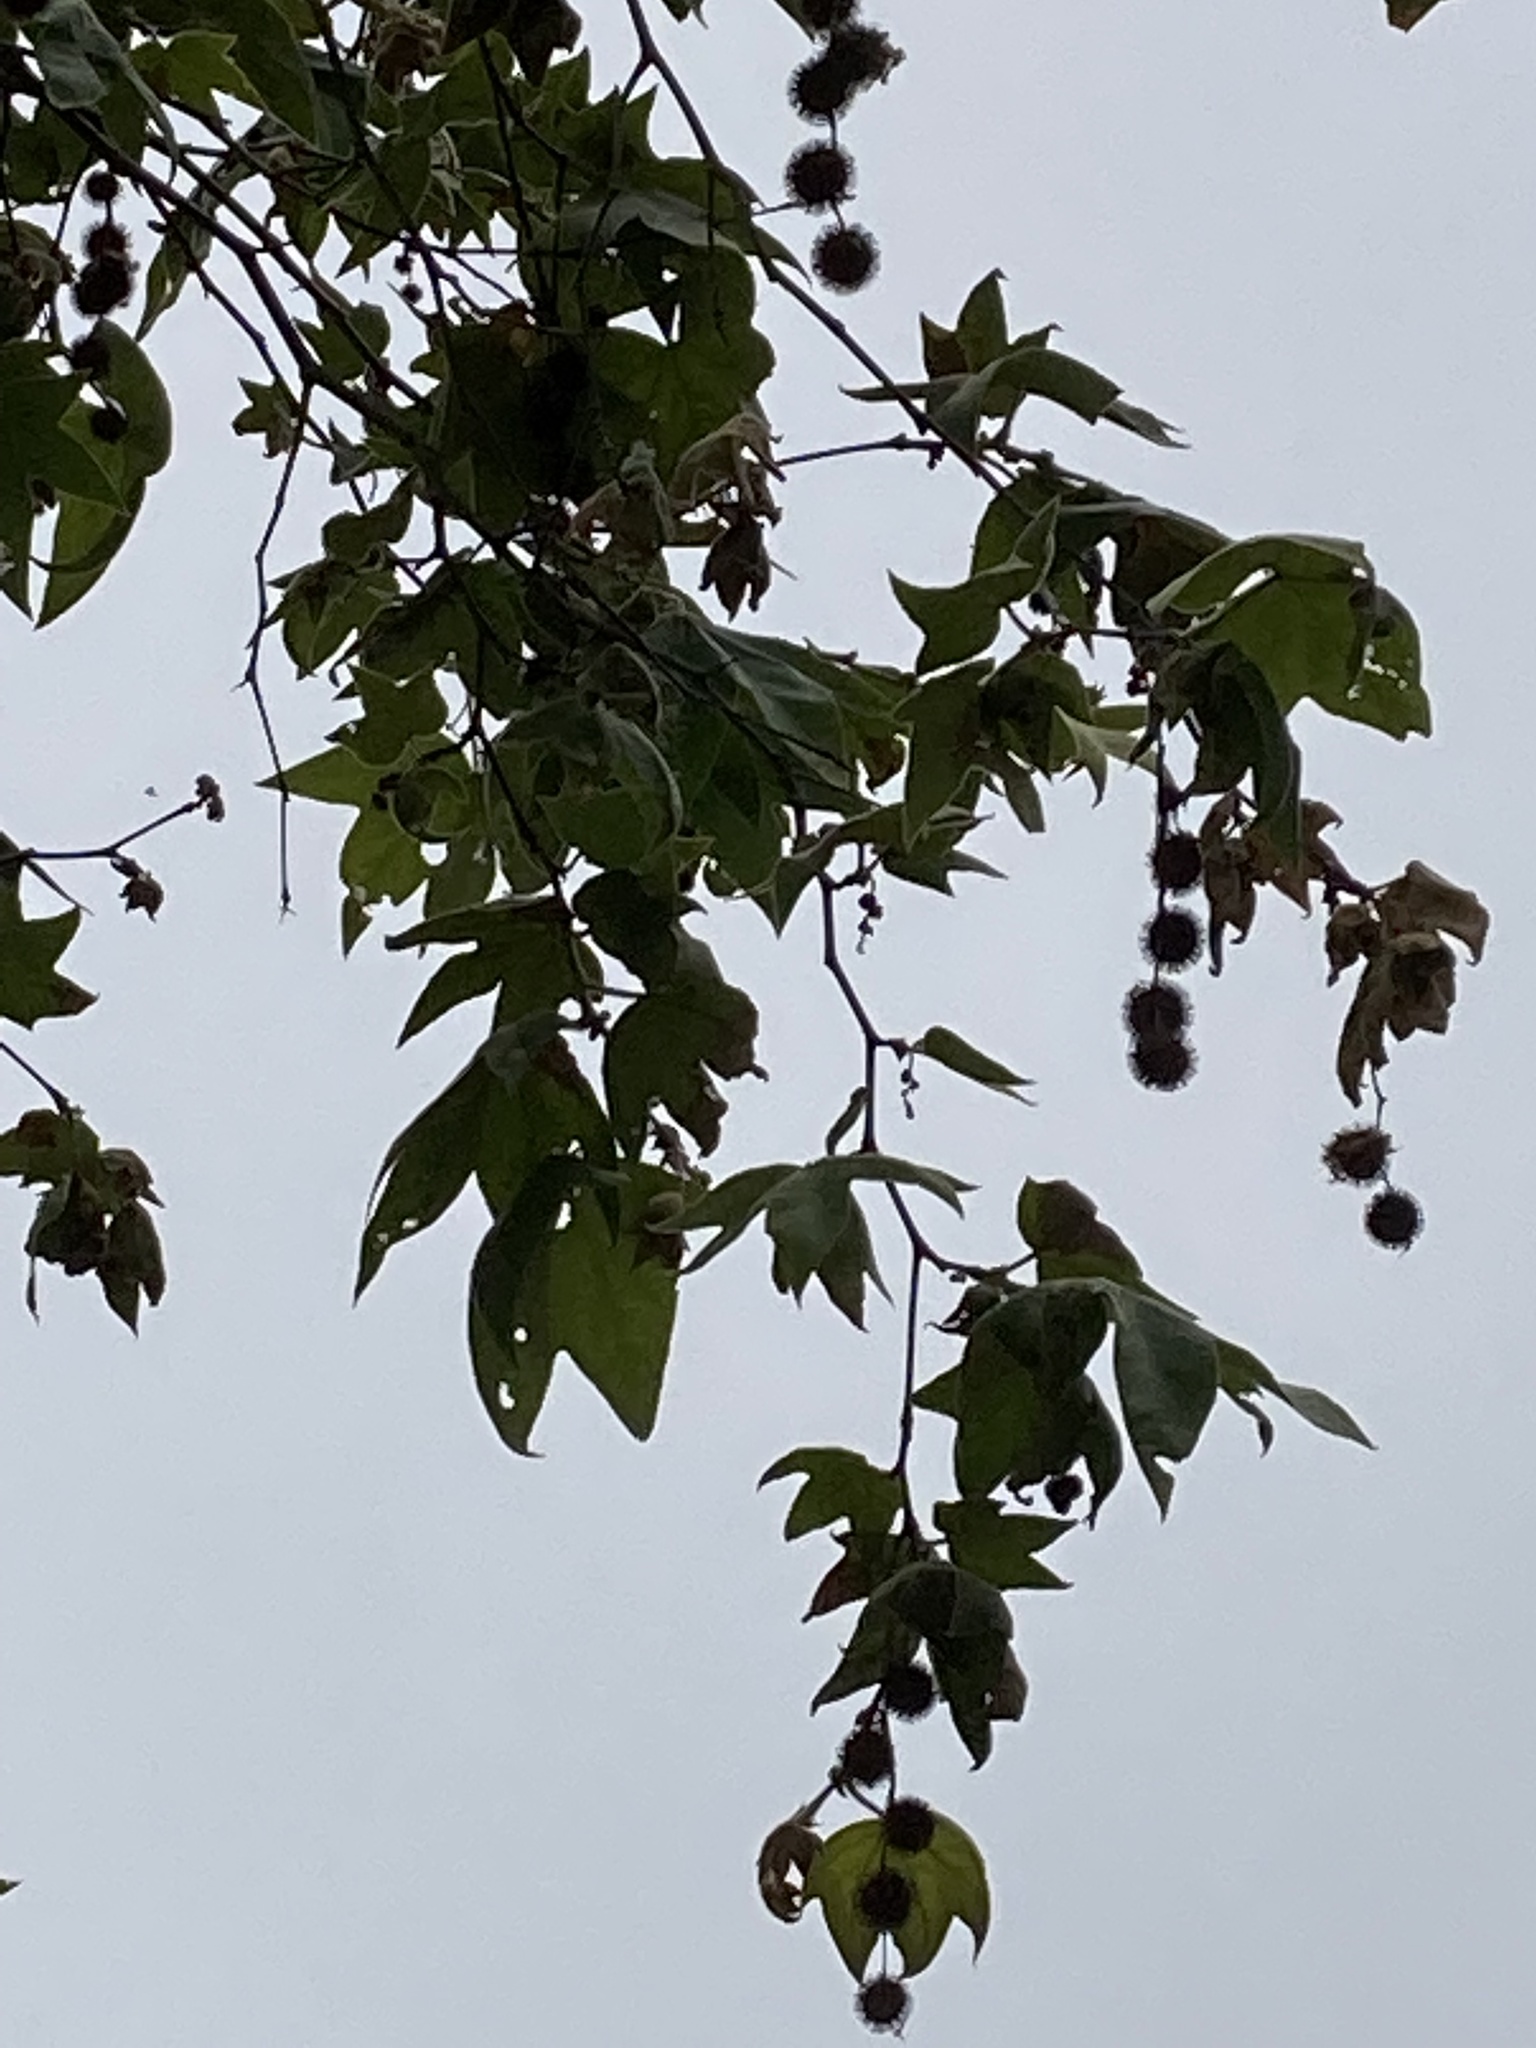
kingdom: Plantae
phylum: Tracheophyta
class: Magnoliopsida
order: Proteales
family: Platanaceae
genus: Platanus
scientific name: Platanus racemosa
